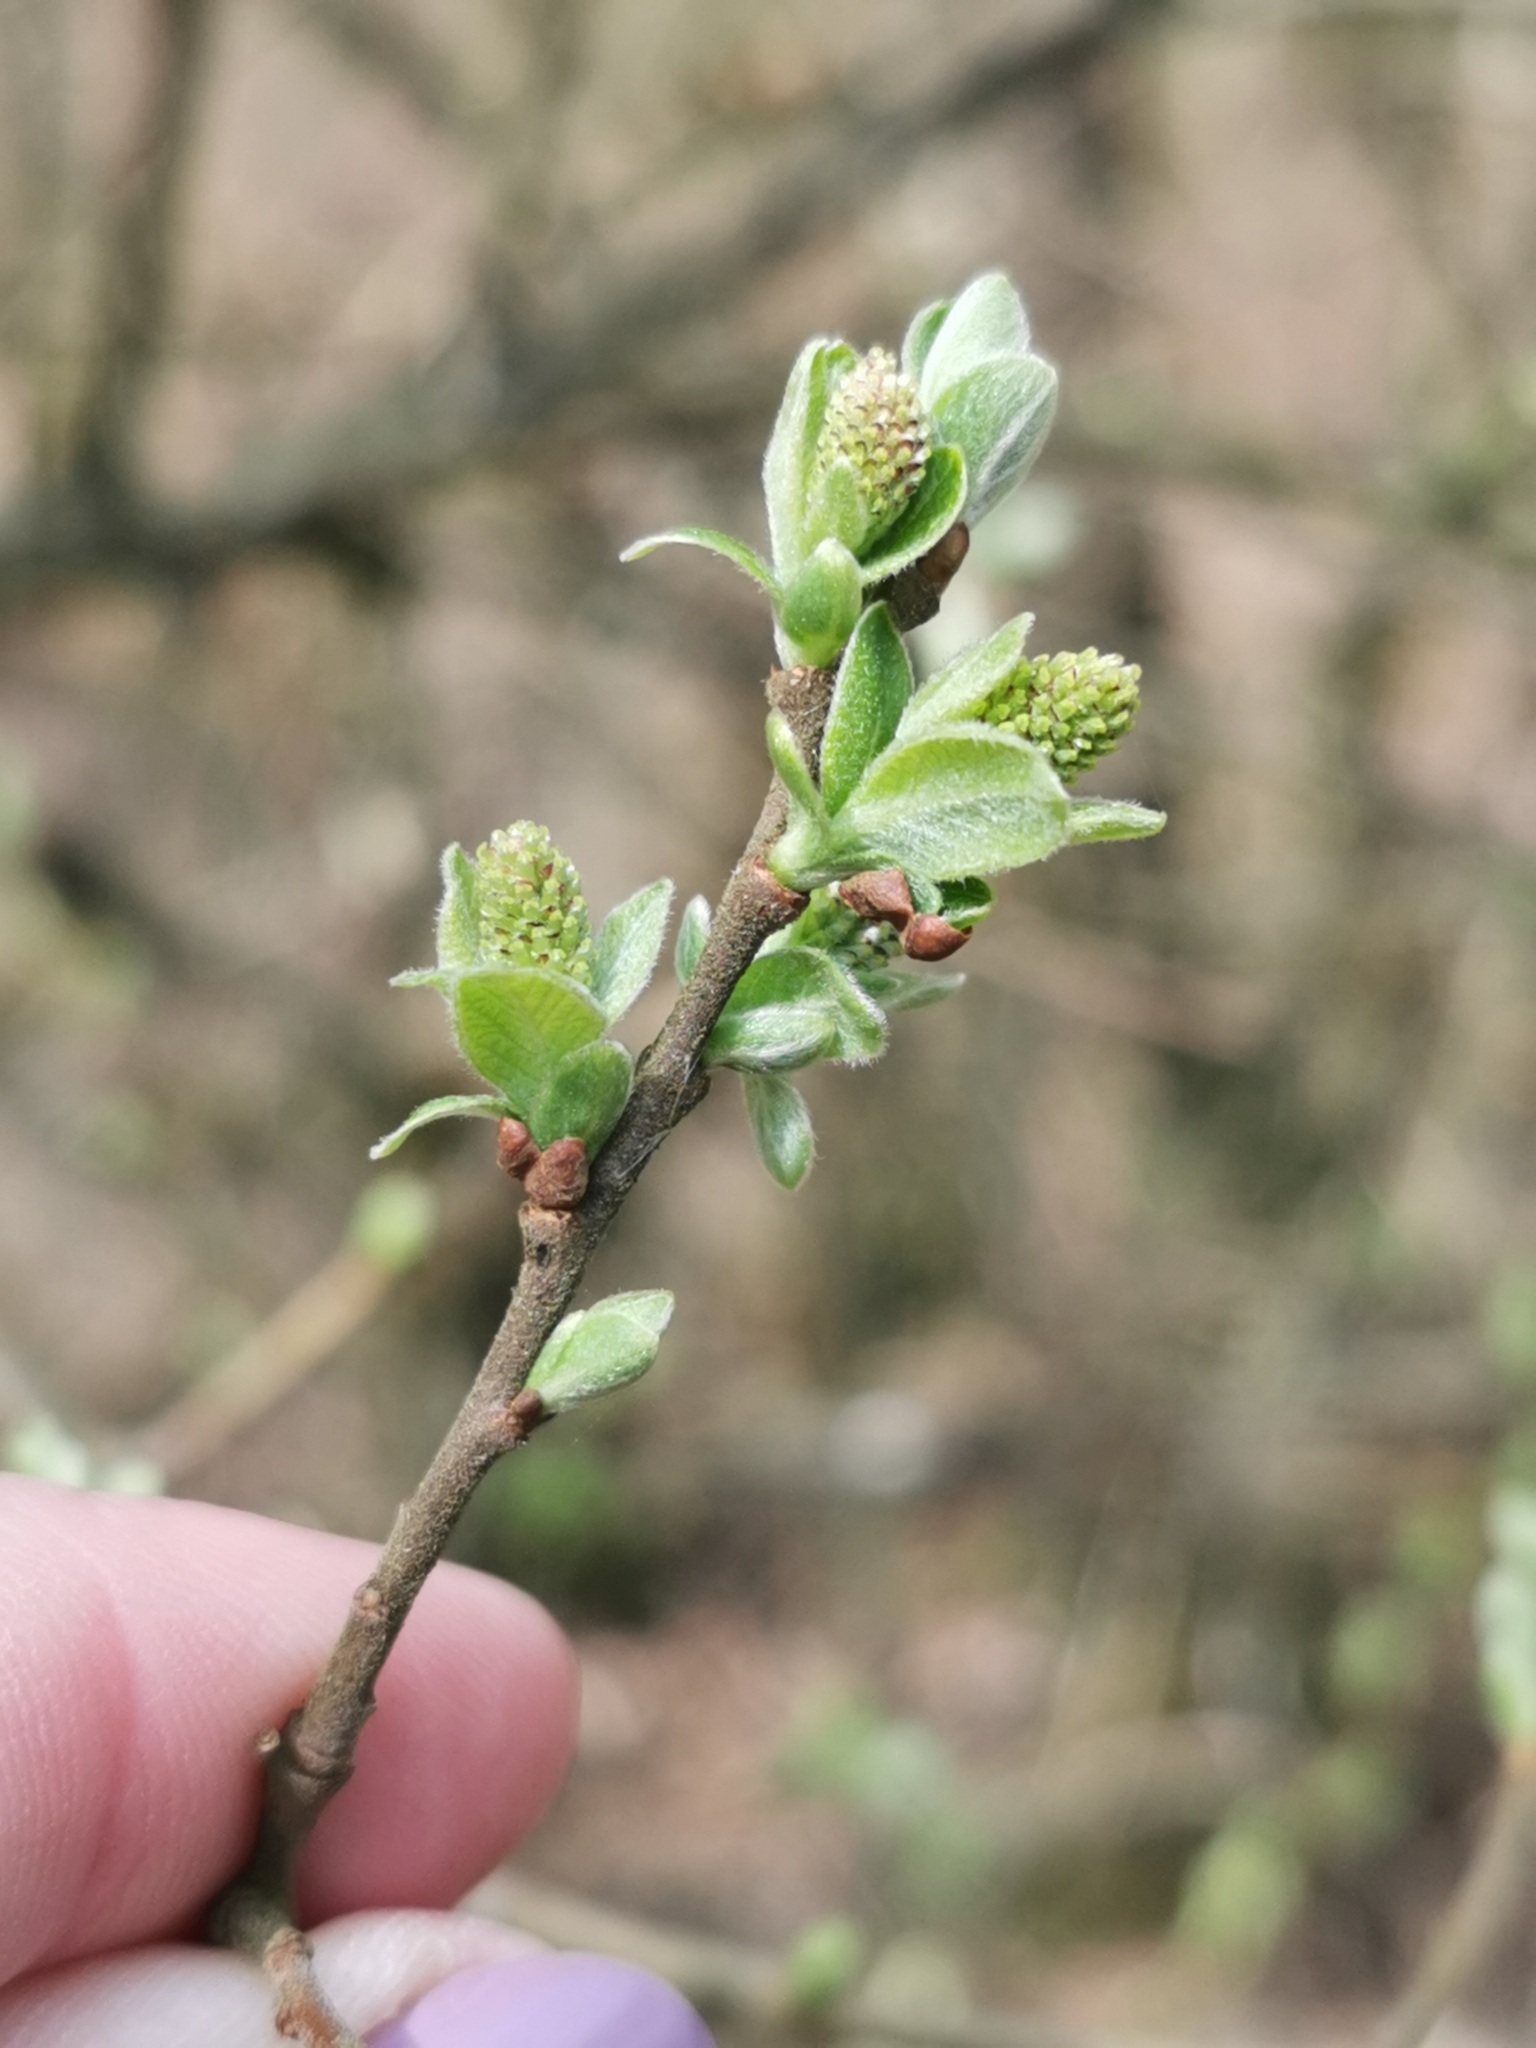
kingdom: Plantae
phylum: Tracheophyta
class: Magnoliopsida
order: Malpighiales
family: Salicaceae
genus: Salix
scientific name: Salix aurita
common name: Eared willow
